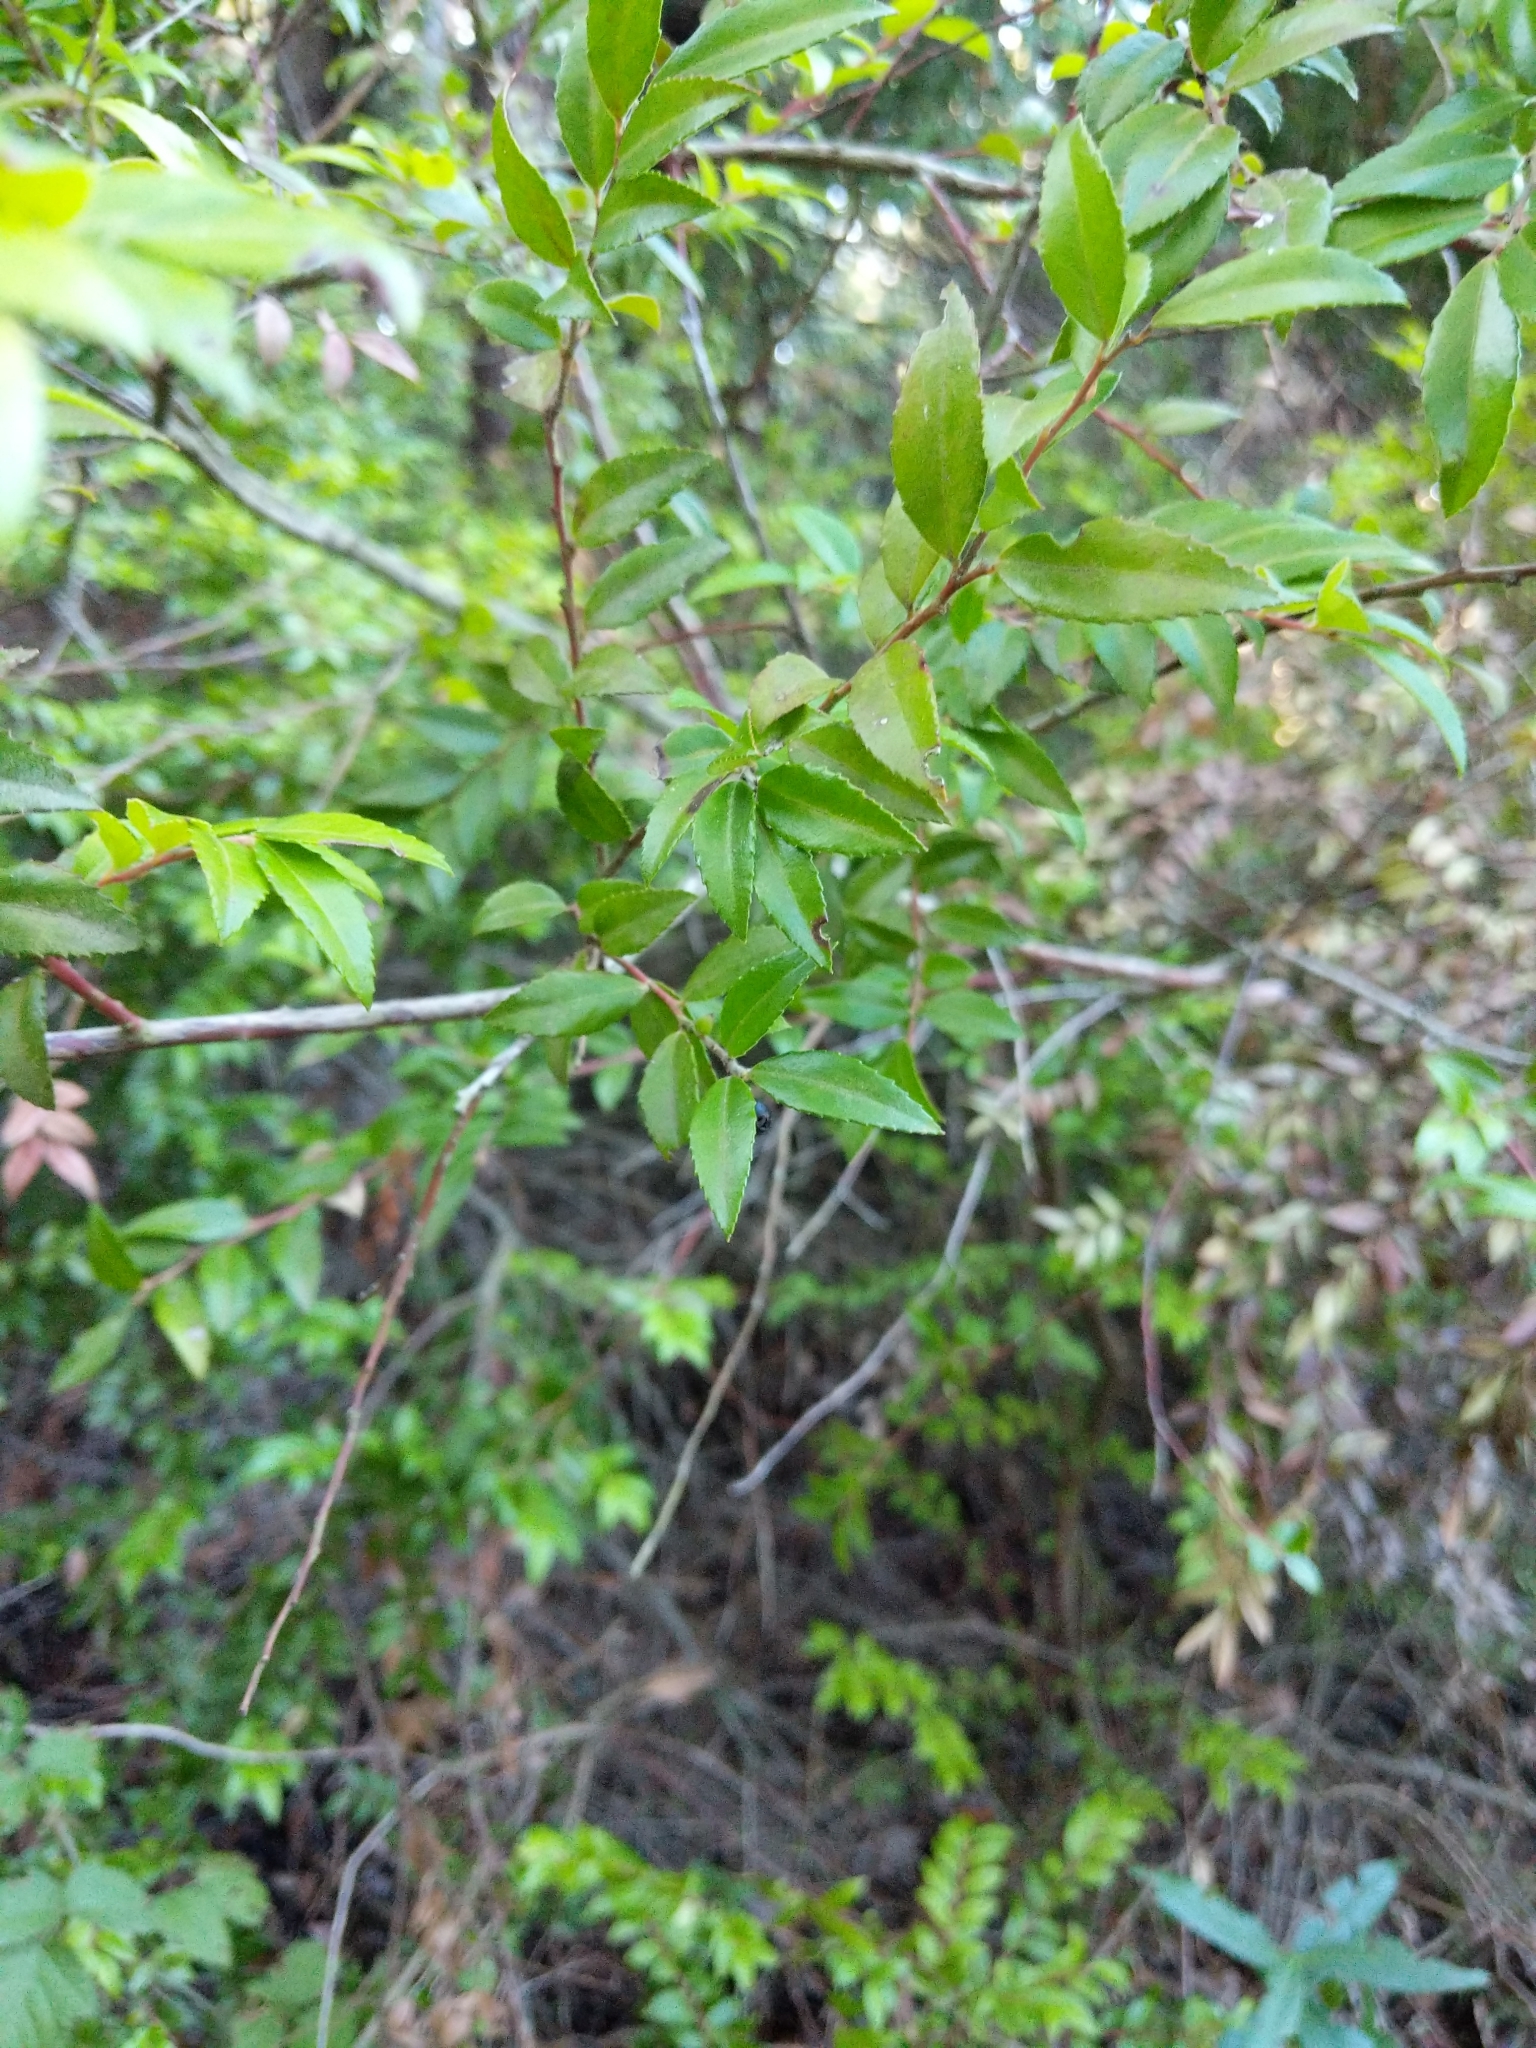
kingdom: Plantae
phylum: Tracheophyta
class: Magnoliopsida
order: Ericales
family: Ericaceae
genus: Vaccinium
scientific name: Vaccinium ovatum
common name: California-huckleberry
